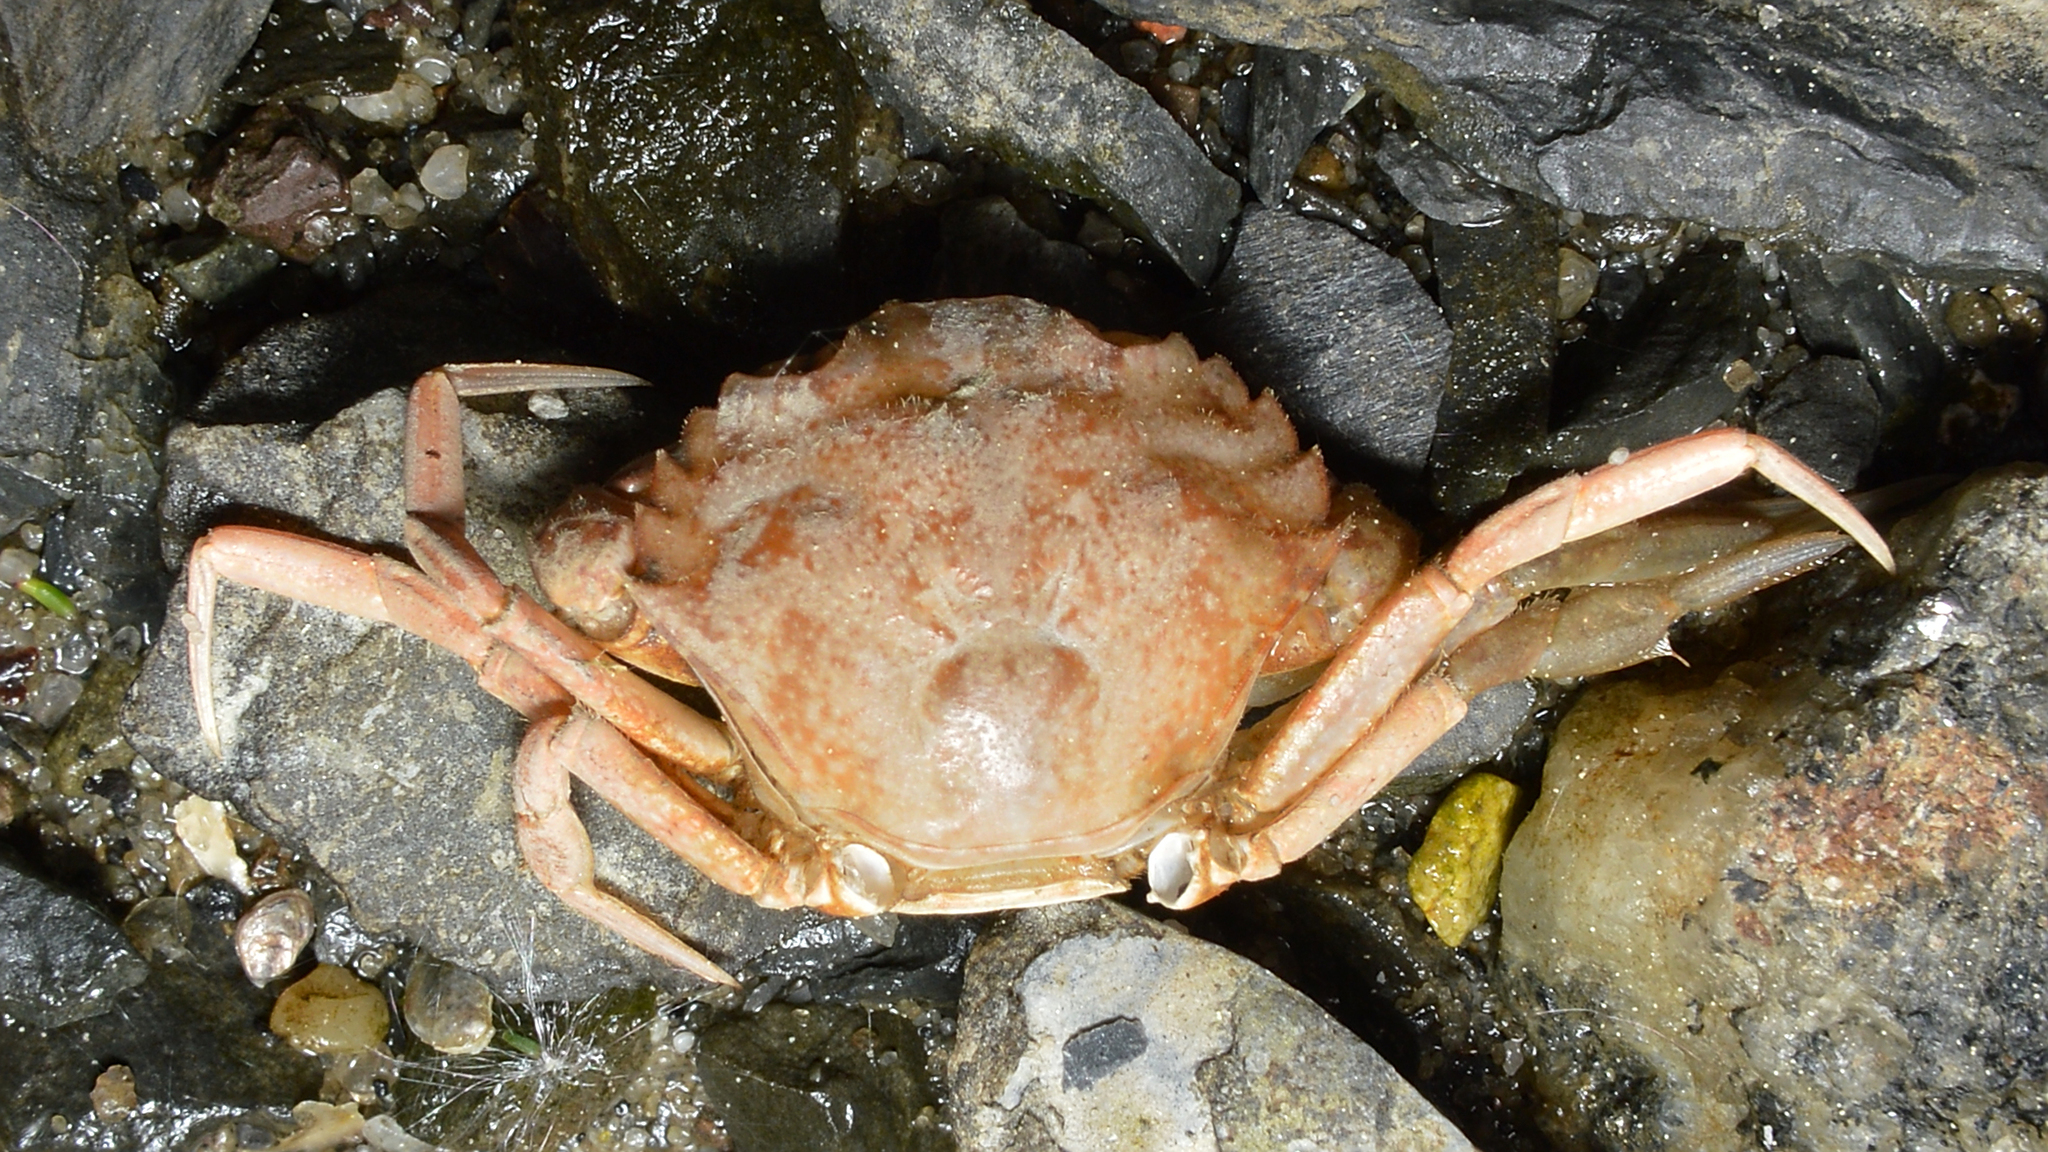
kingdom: Animalia
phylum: Arthropoda
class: Malacostraca
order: Decapoda
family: Carcinidae
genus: Carcinus
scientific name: Carcinus maenas
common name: European green crab
